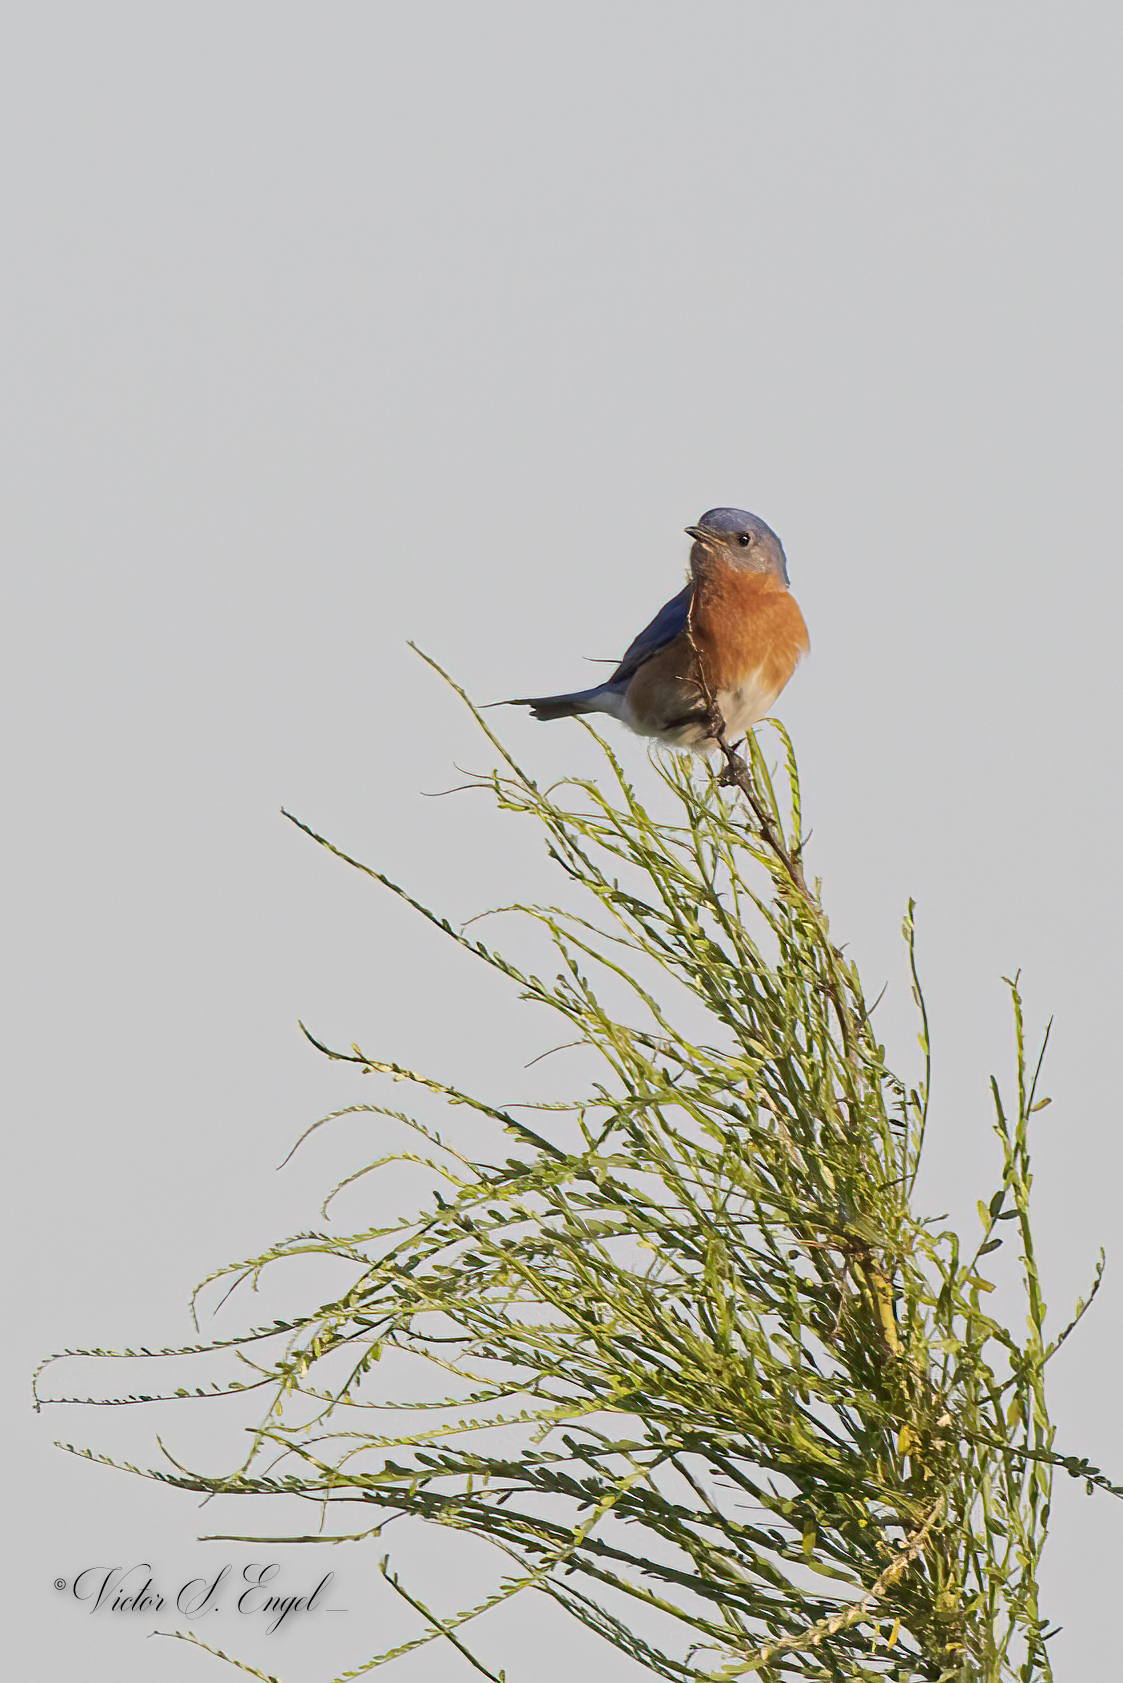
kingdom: Animalia
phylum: Chordata
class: Aves
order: Passeriformes
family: Turdidae
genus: Sialia
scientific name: Sialia sialis
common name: Eastern bluebird
